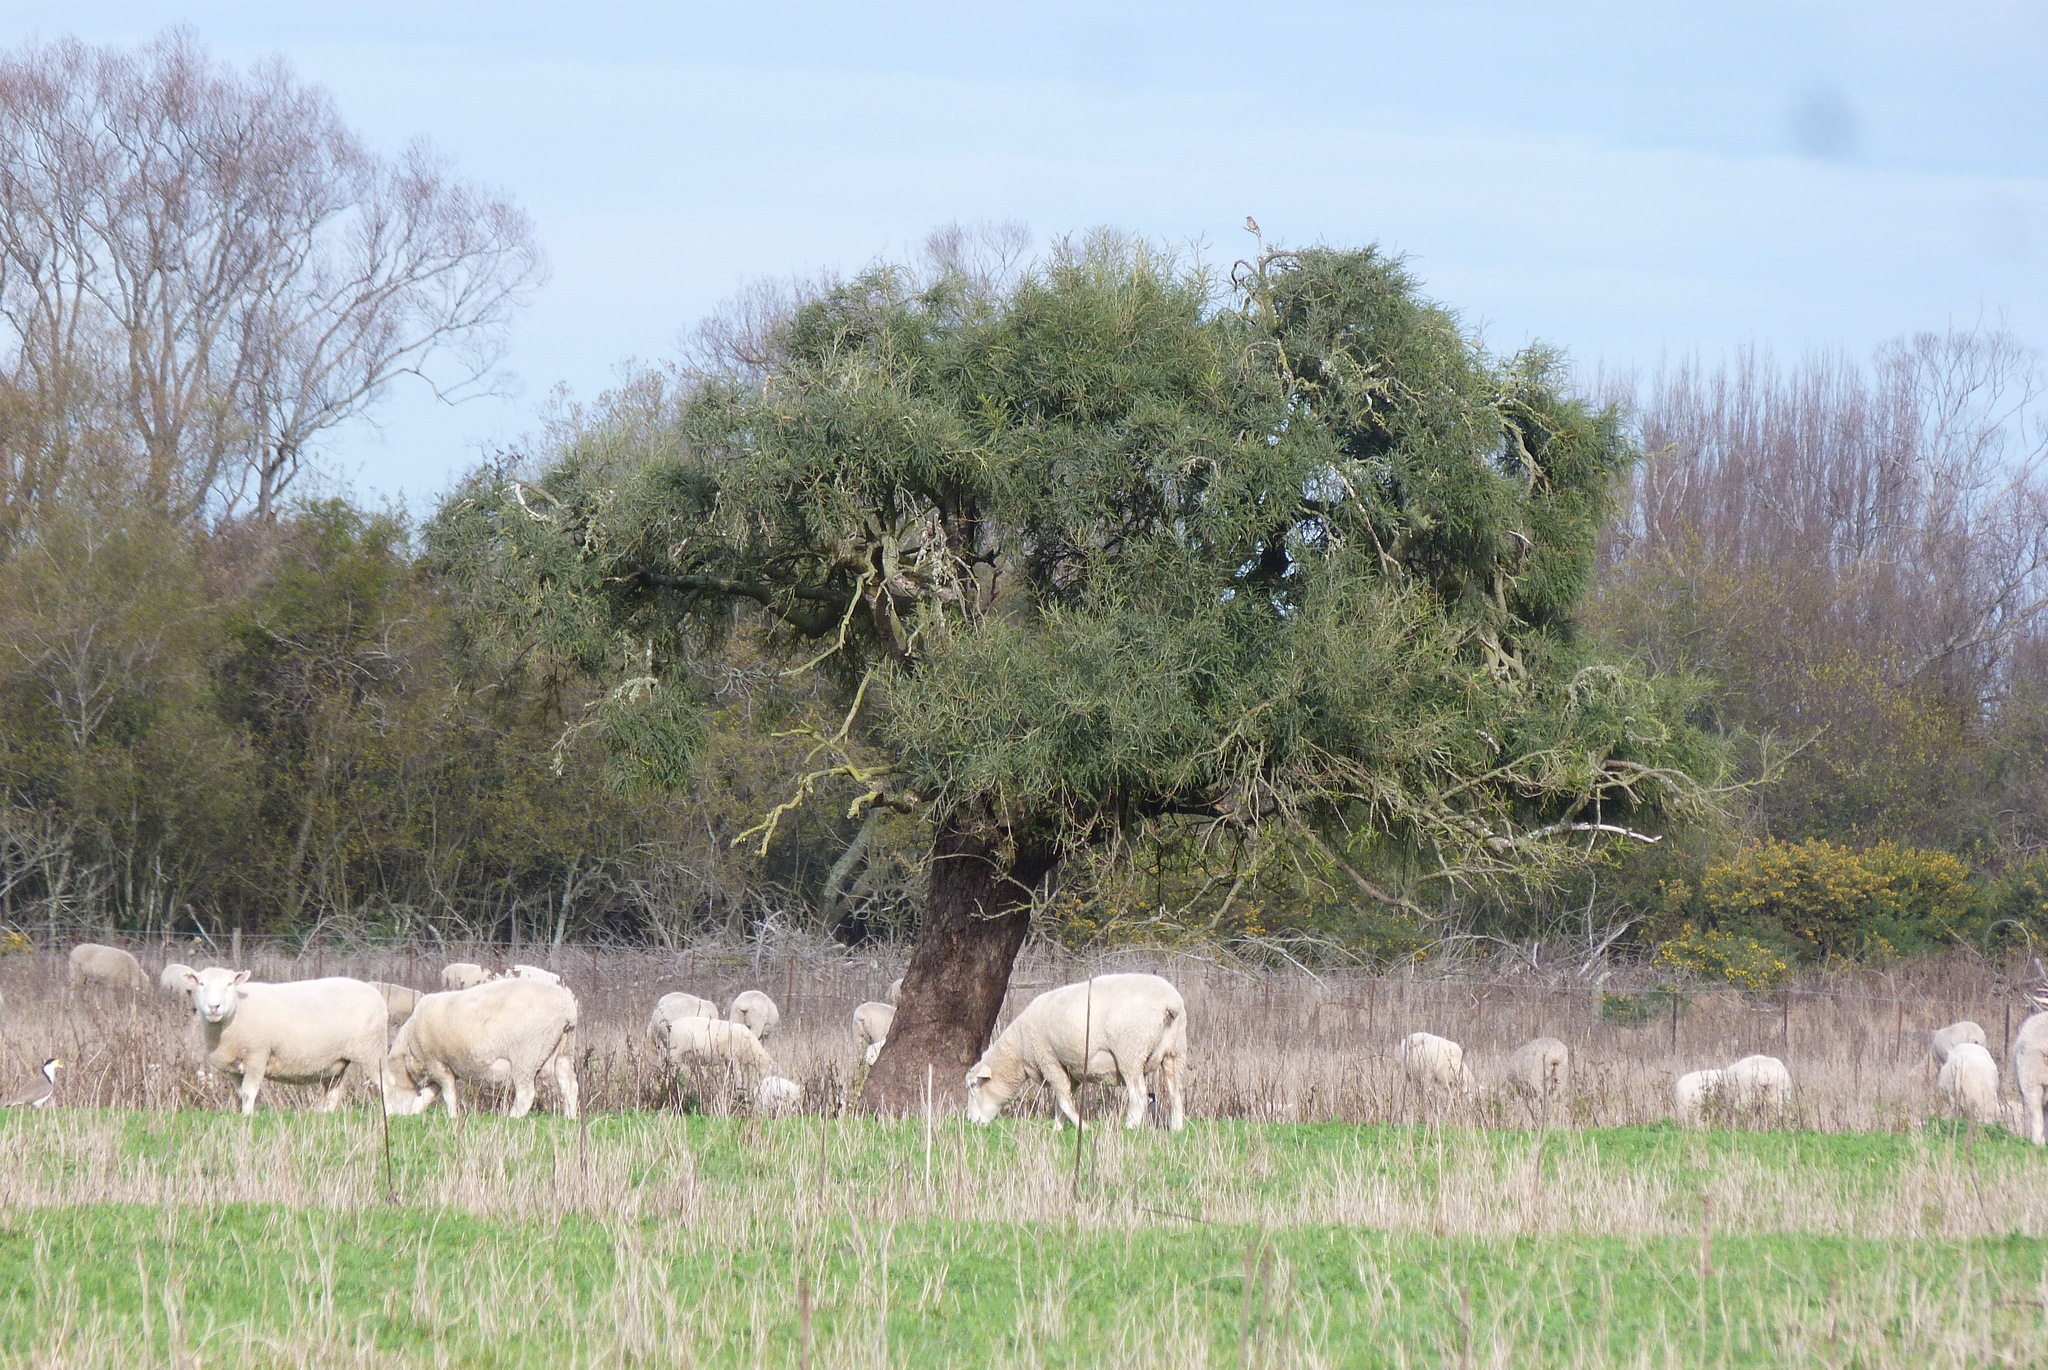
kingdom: Plantae
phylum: Tracheophyta
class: Magnoliopsida
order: Fabales
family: Fabaceae
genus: Sophora
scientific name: Sophora microphylla
